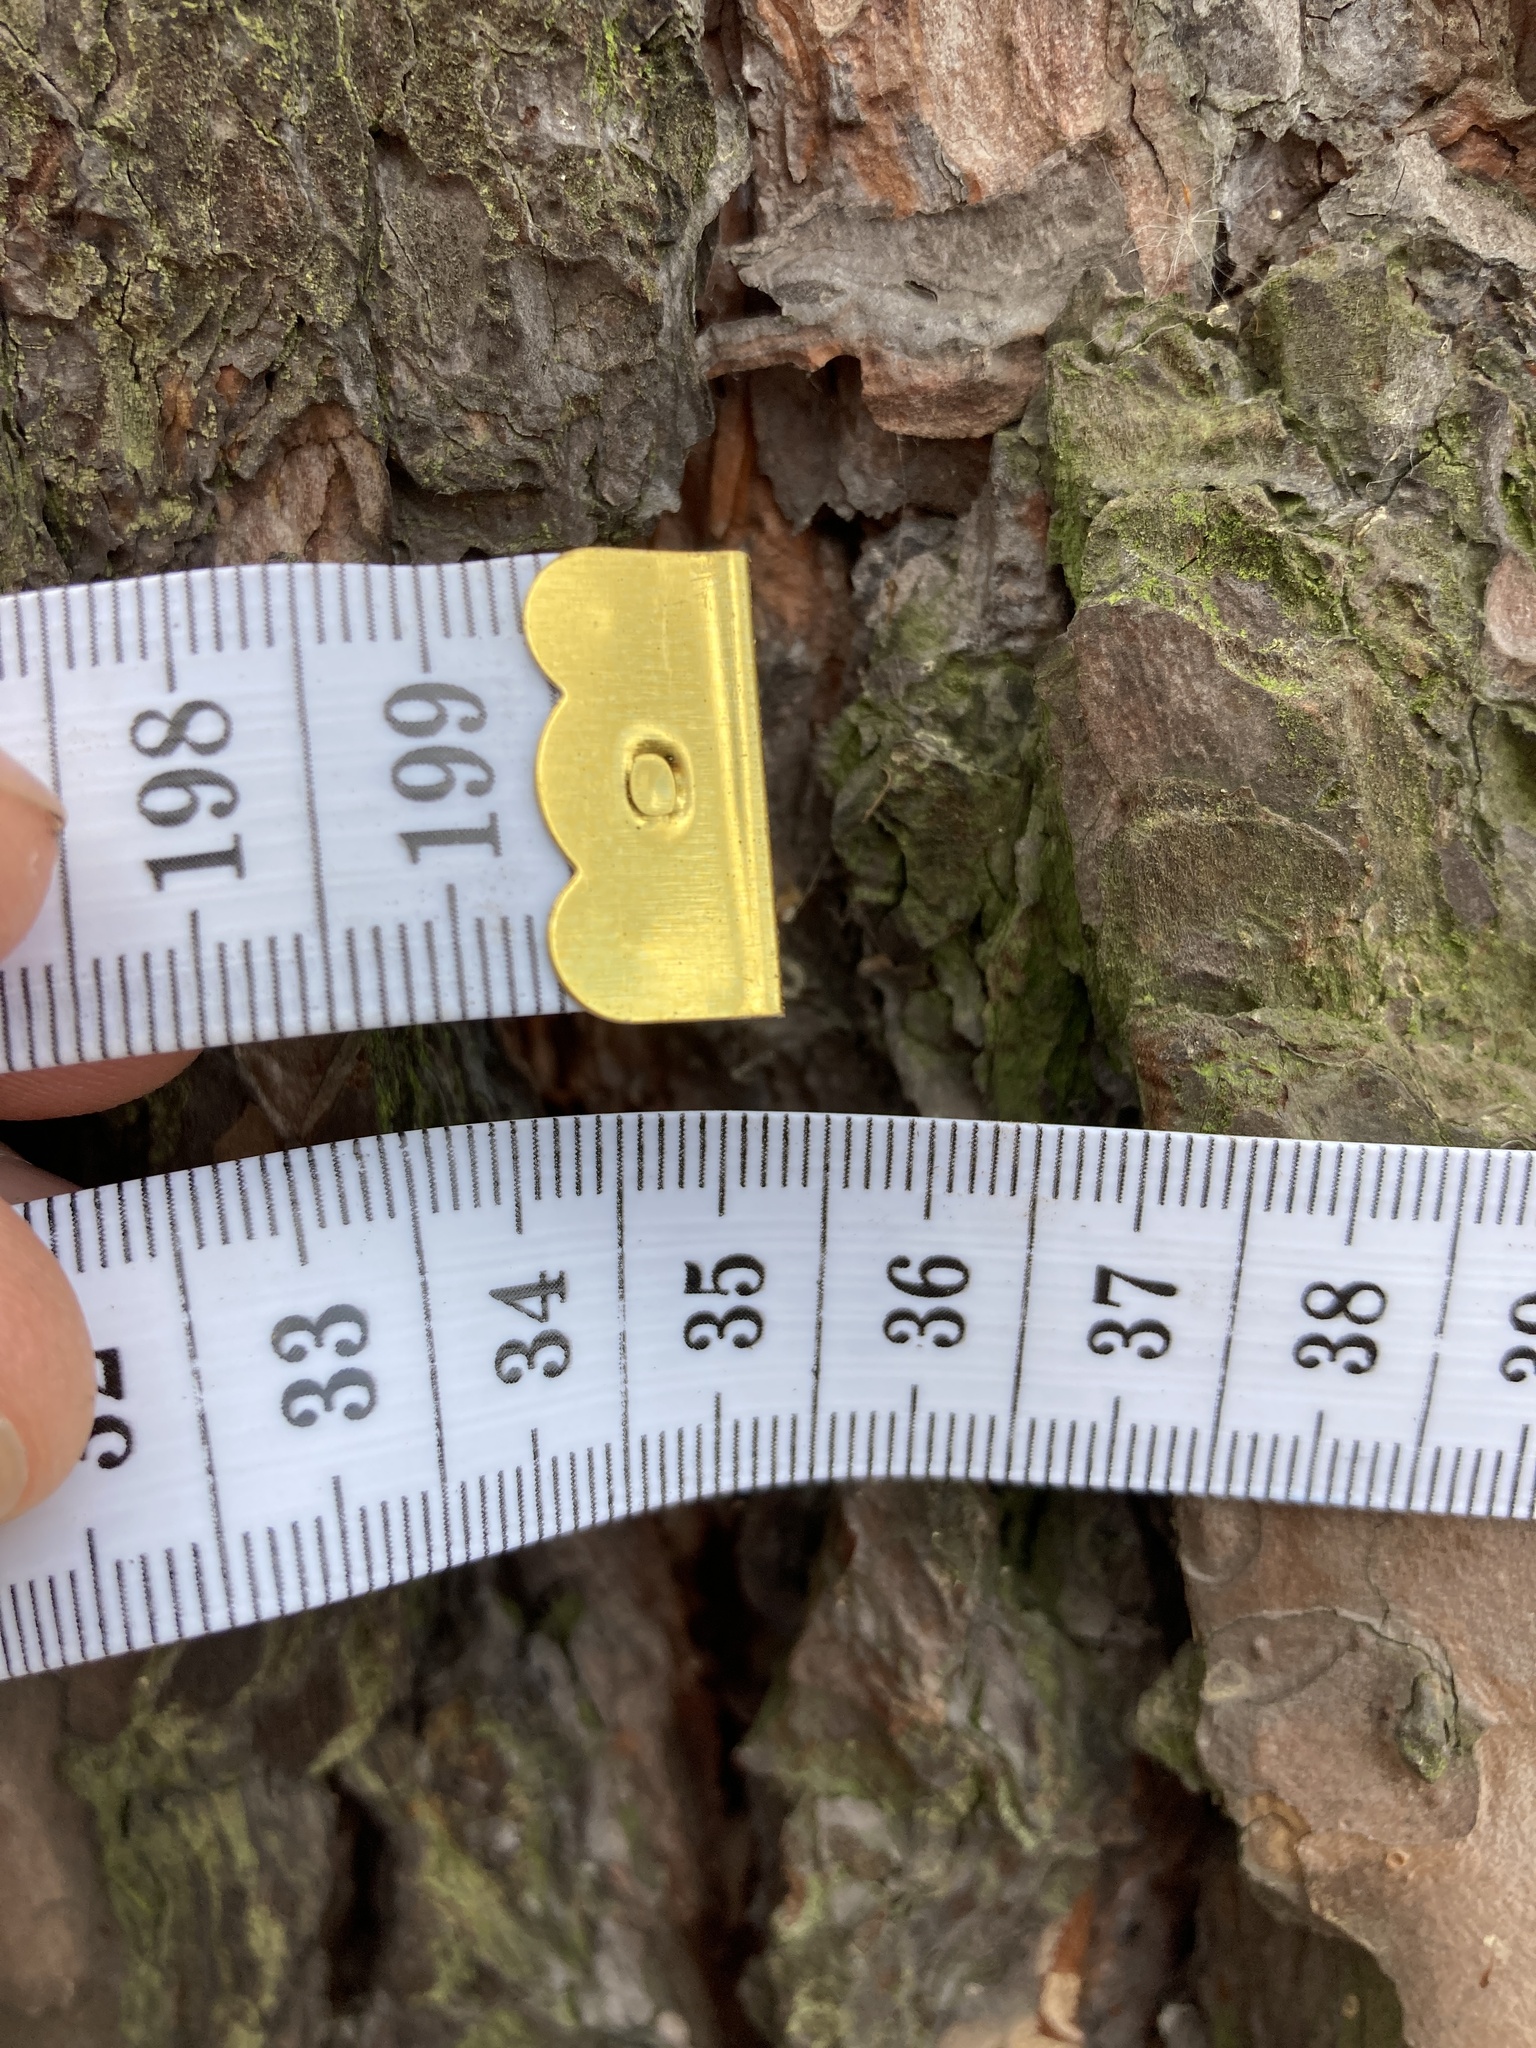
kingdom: Plantae
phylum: Tracheophyta
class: Pinopsida
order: Pinales
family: Pinaceae
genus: Pinus
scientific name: Pinus sylvestris
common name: Scots pine
